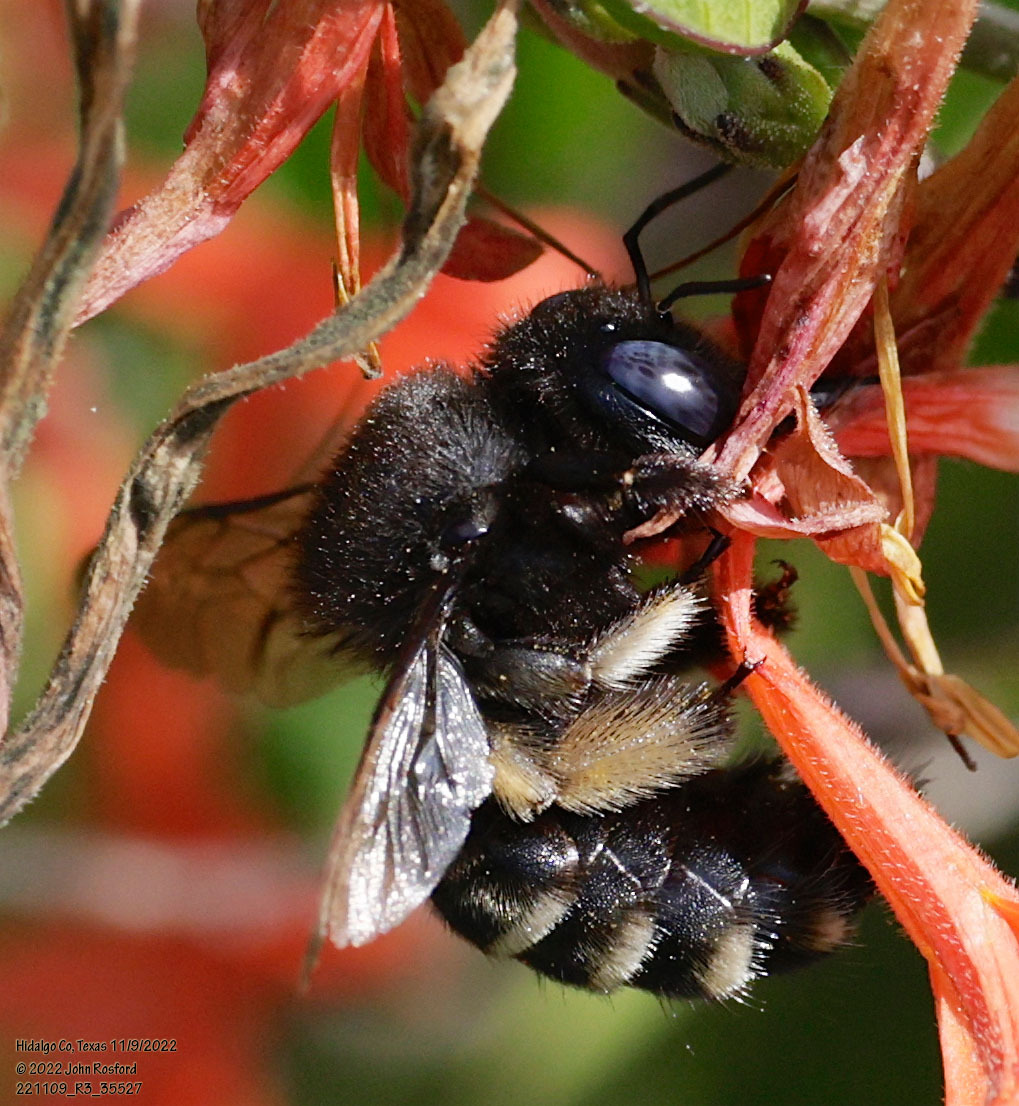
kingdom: Animalia
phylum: Arthropoda
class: Insecta
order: Hymenoptera
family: Apidae
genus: Xylocopa
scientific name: Xylocopa tabaniformis
